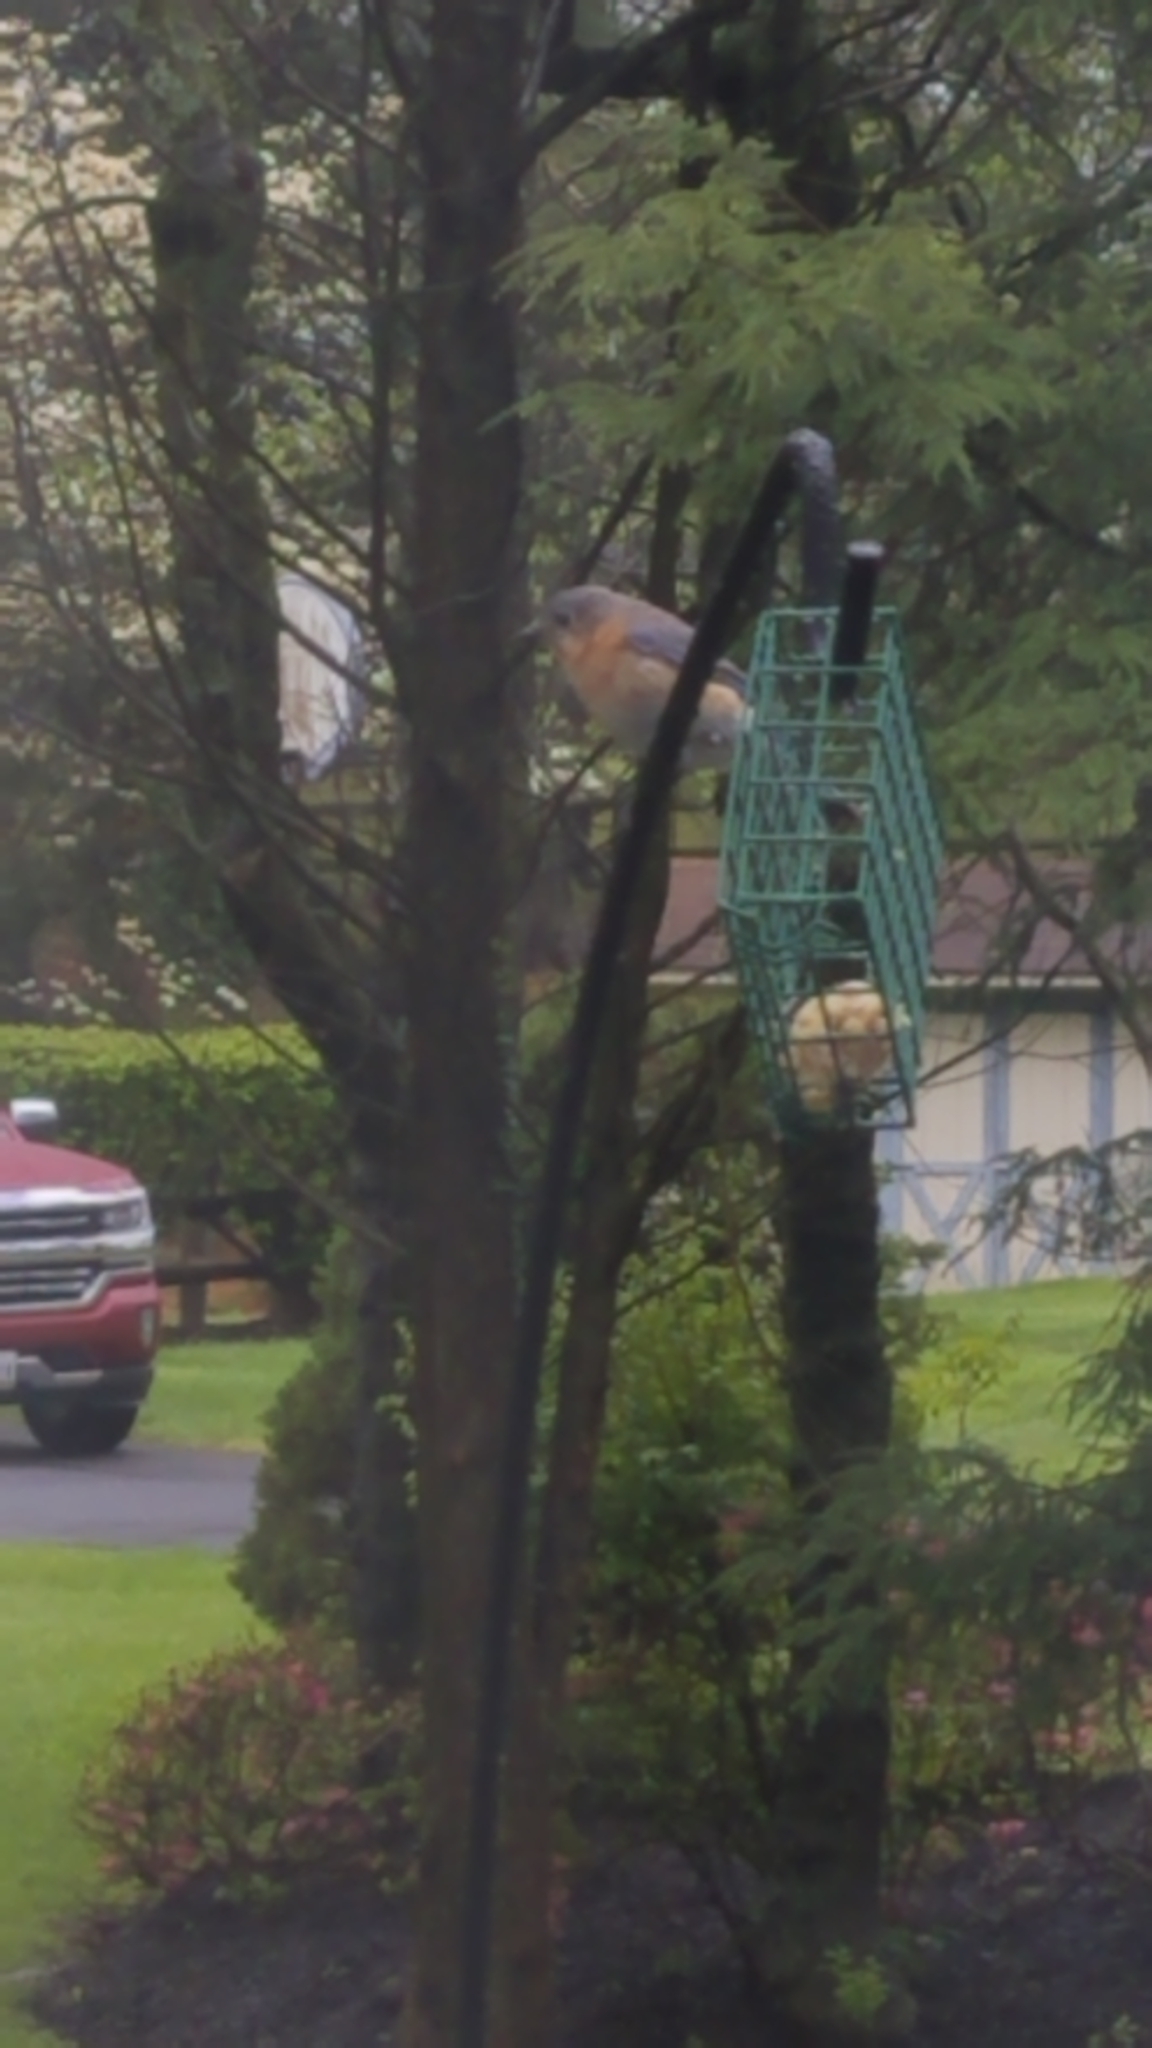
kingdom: Animalia
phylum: Chordata
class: Aves
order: Passeriformes
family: Turdidae
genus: Sialia
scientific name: Sialia sialis
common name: Eastern bluebird
